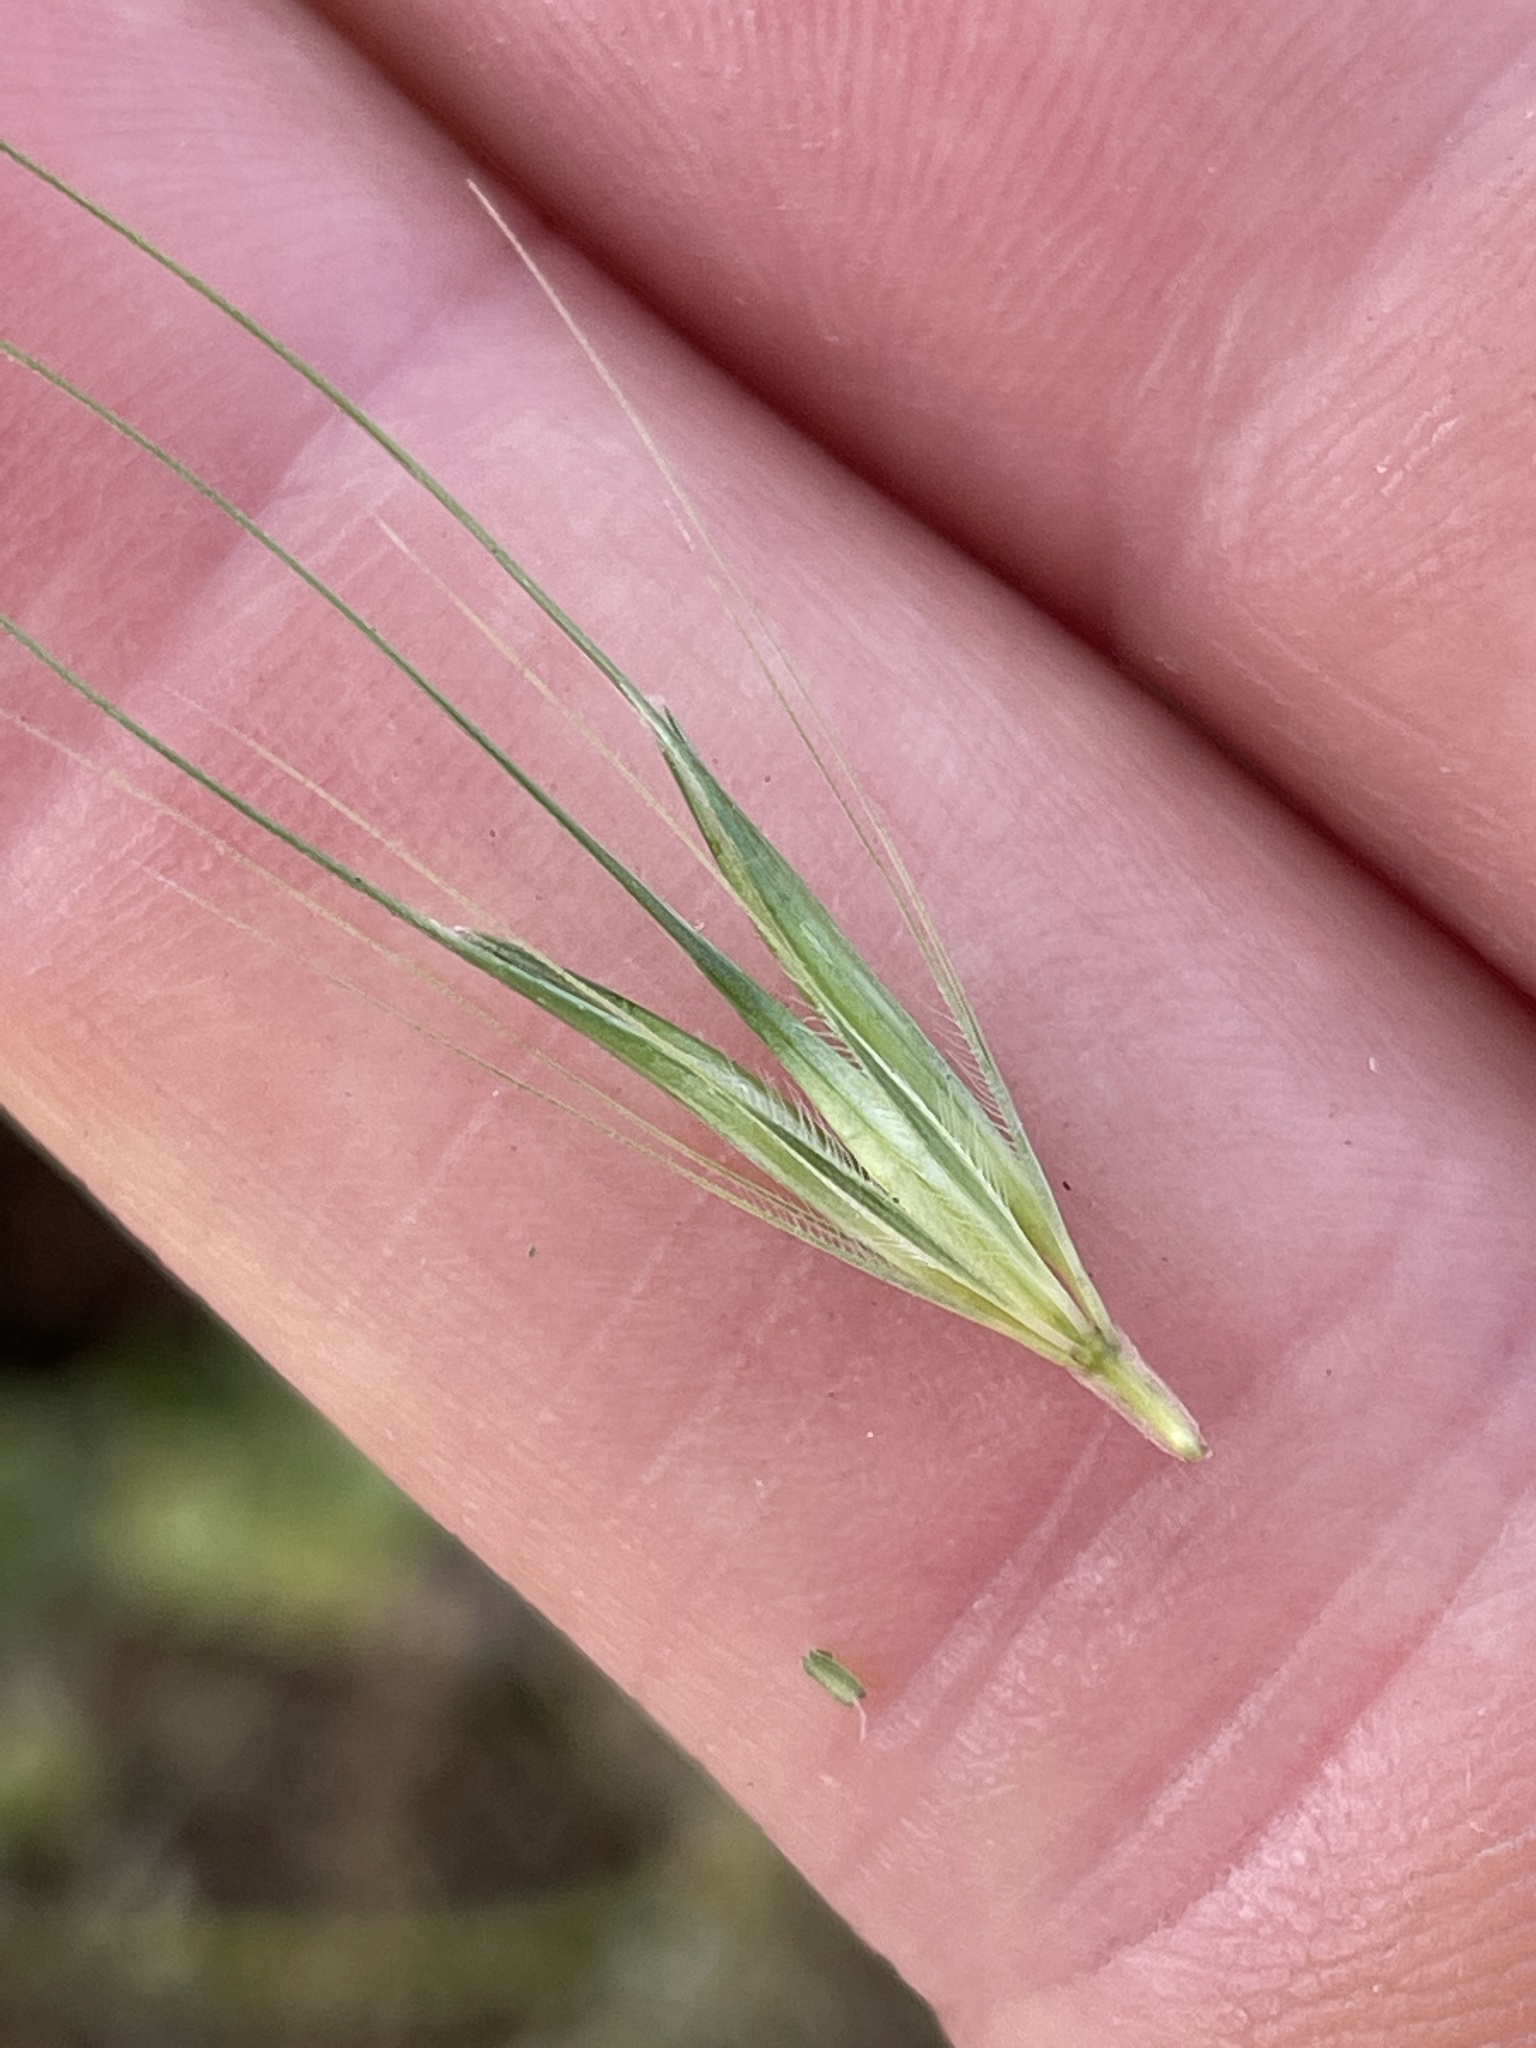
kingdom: Plantae
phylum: Tracheophyta
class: Liliopsida
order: Poales
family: Poaceae
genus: Hordeum
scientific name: Hordeum murinum
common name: Wall barley
